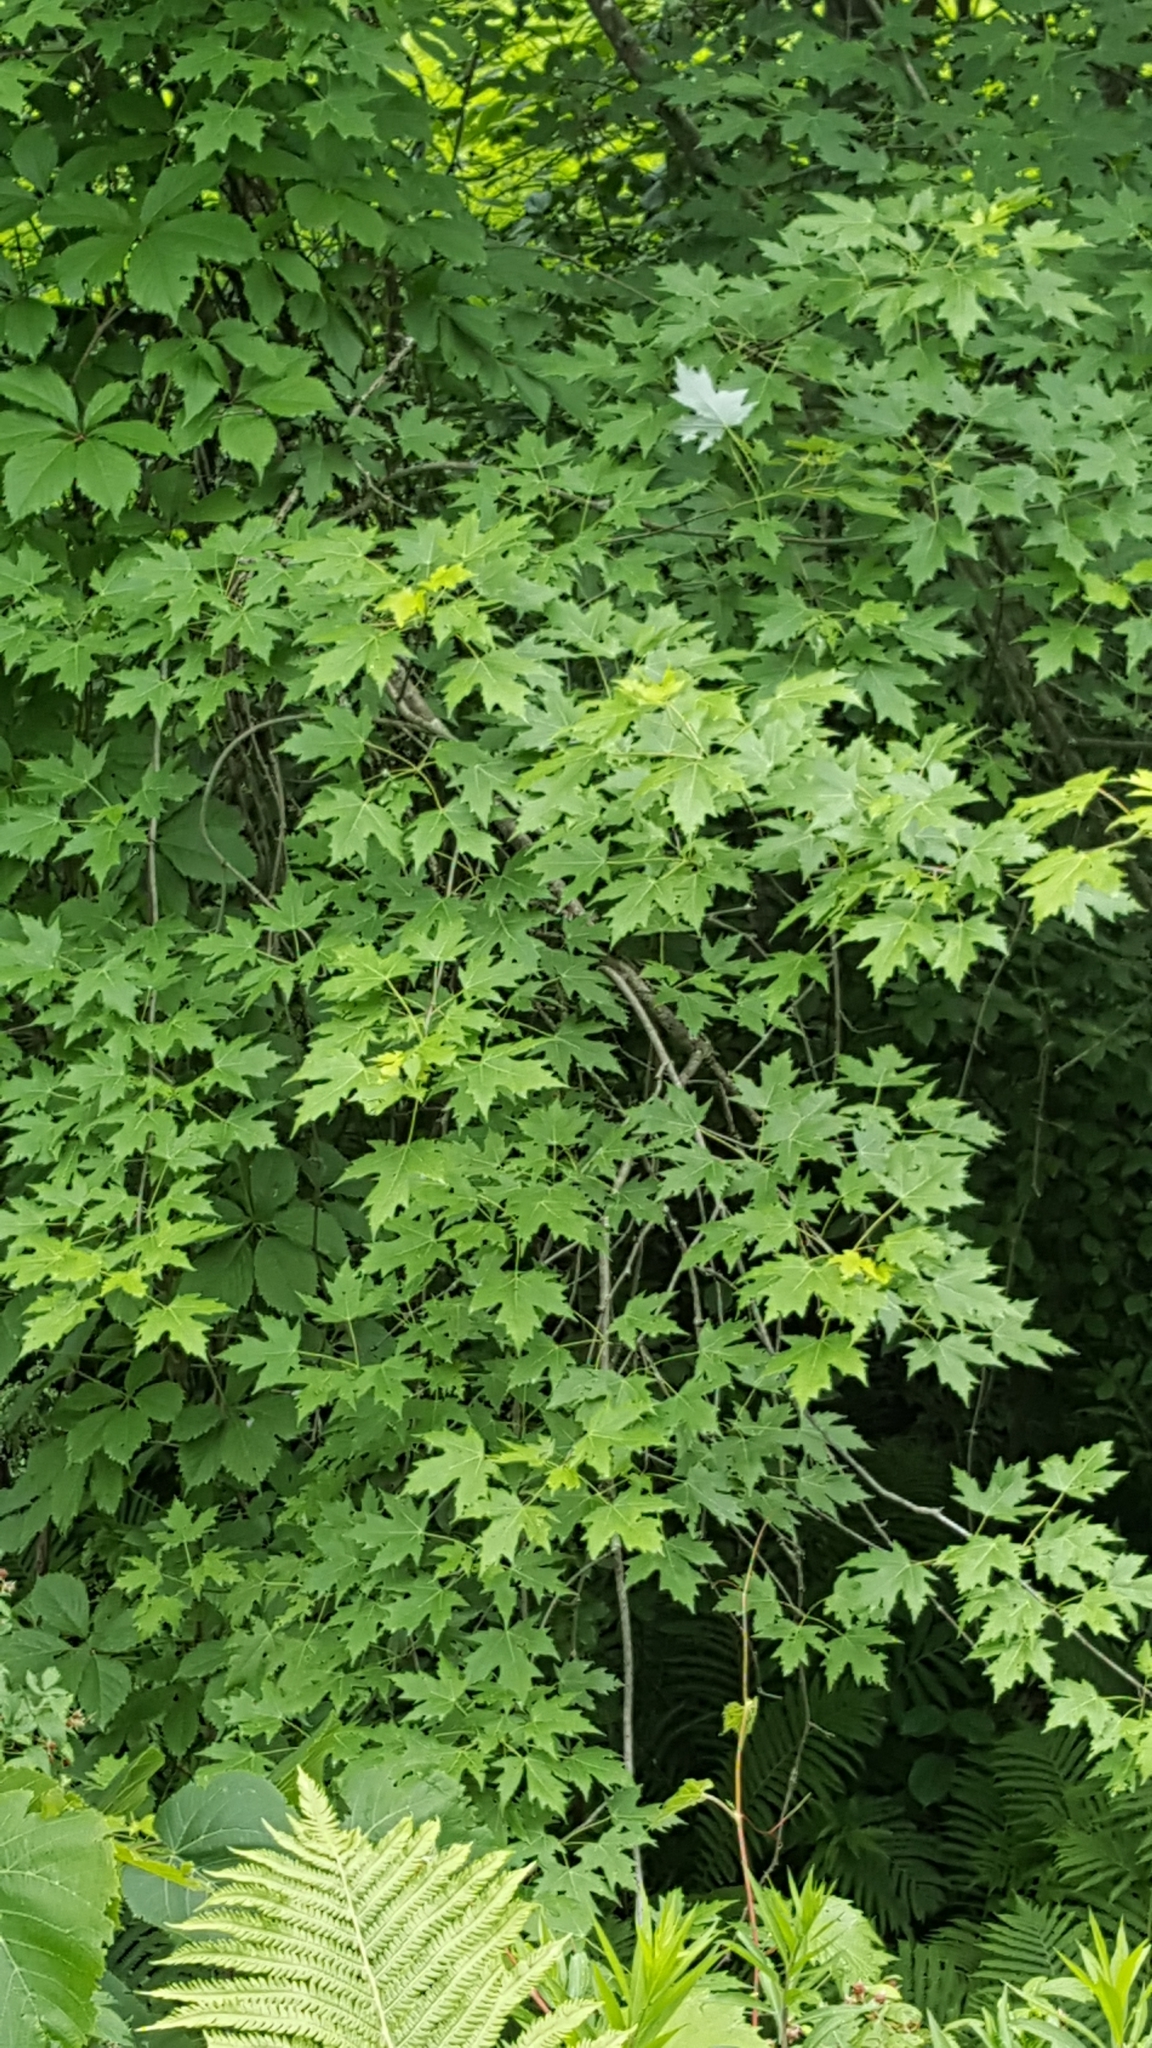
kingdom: Plantae
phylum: Tracheophyta
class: Magnoliopsida
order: Sapindales
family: Sapindaceae
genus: Acer
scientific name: Acer saccharinum
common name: Silver maple
